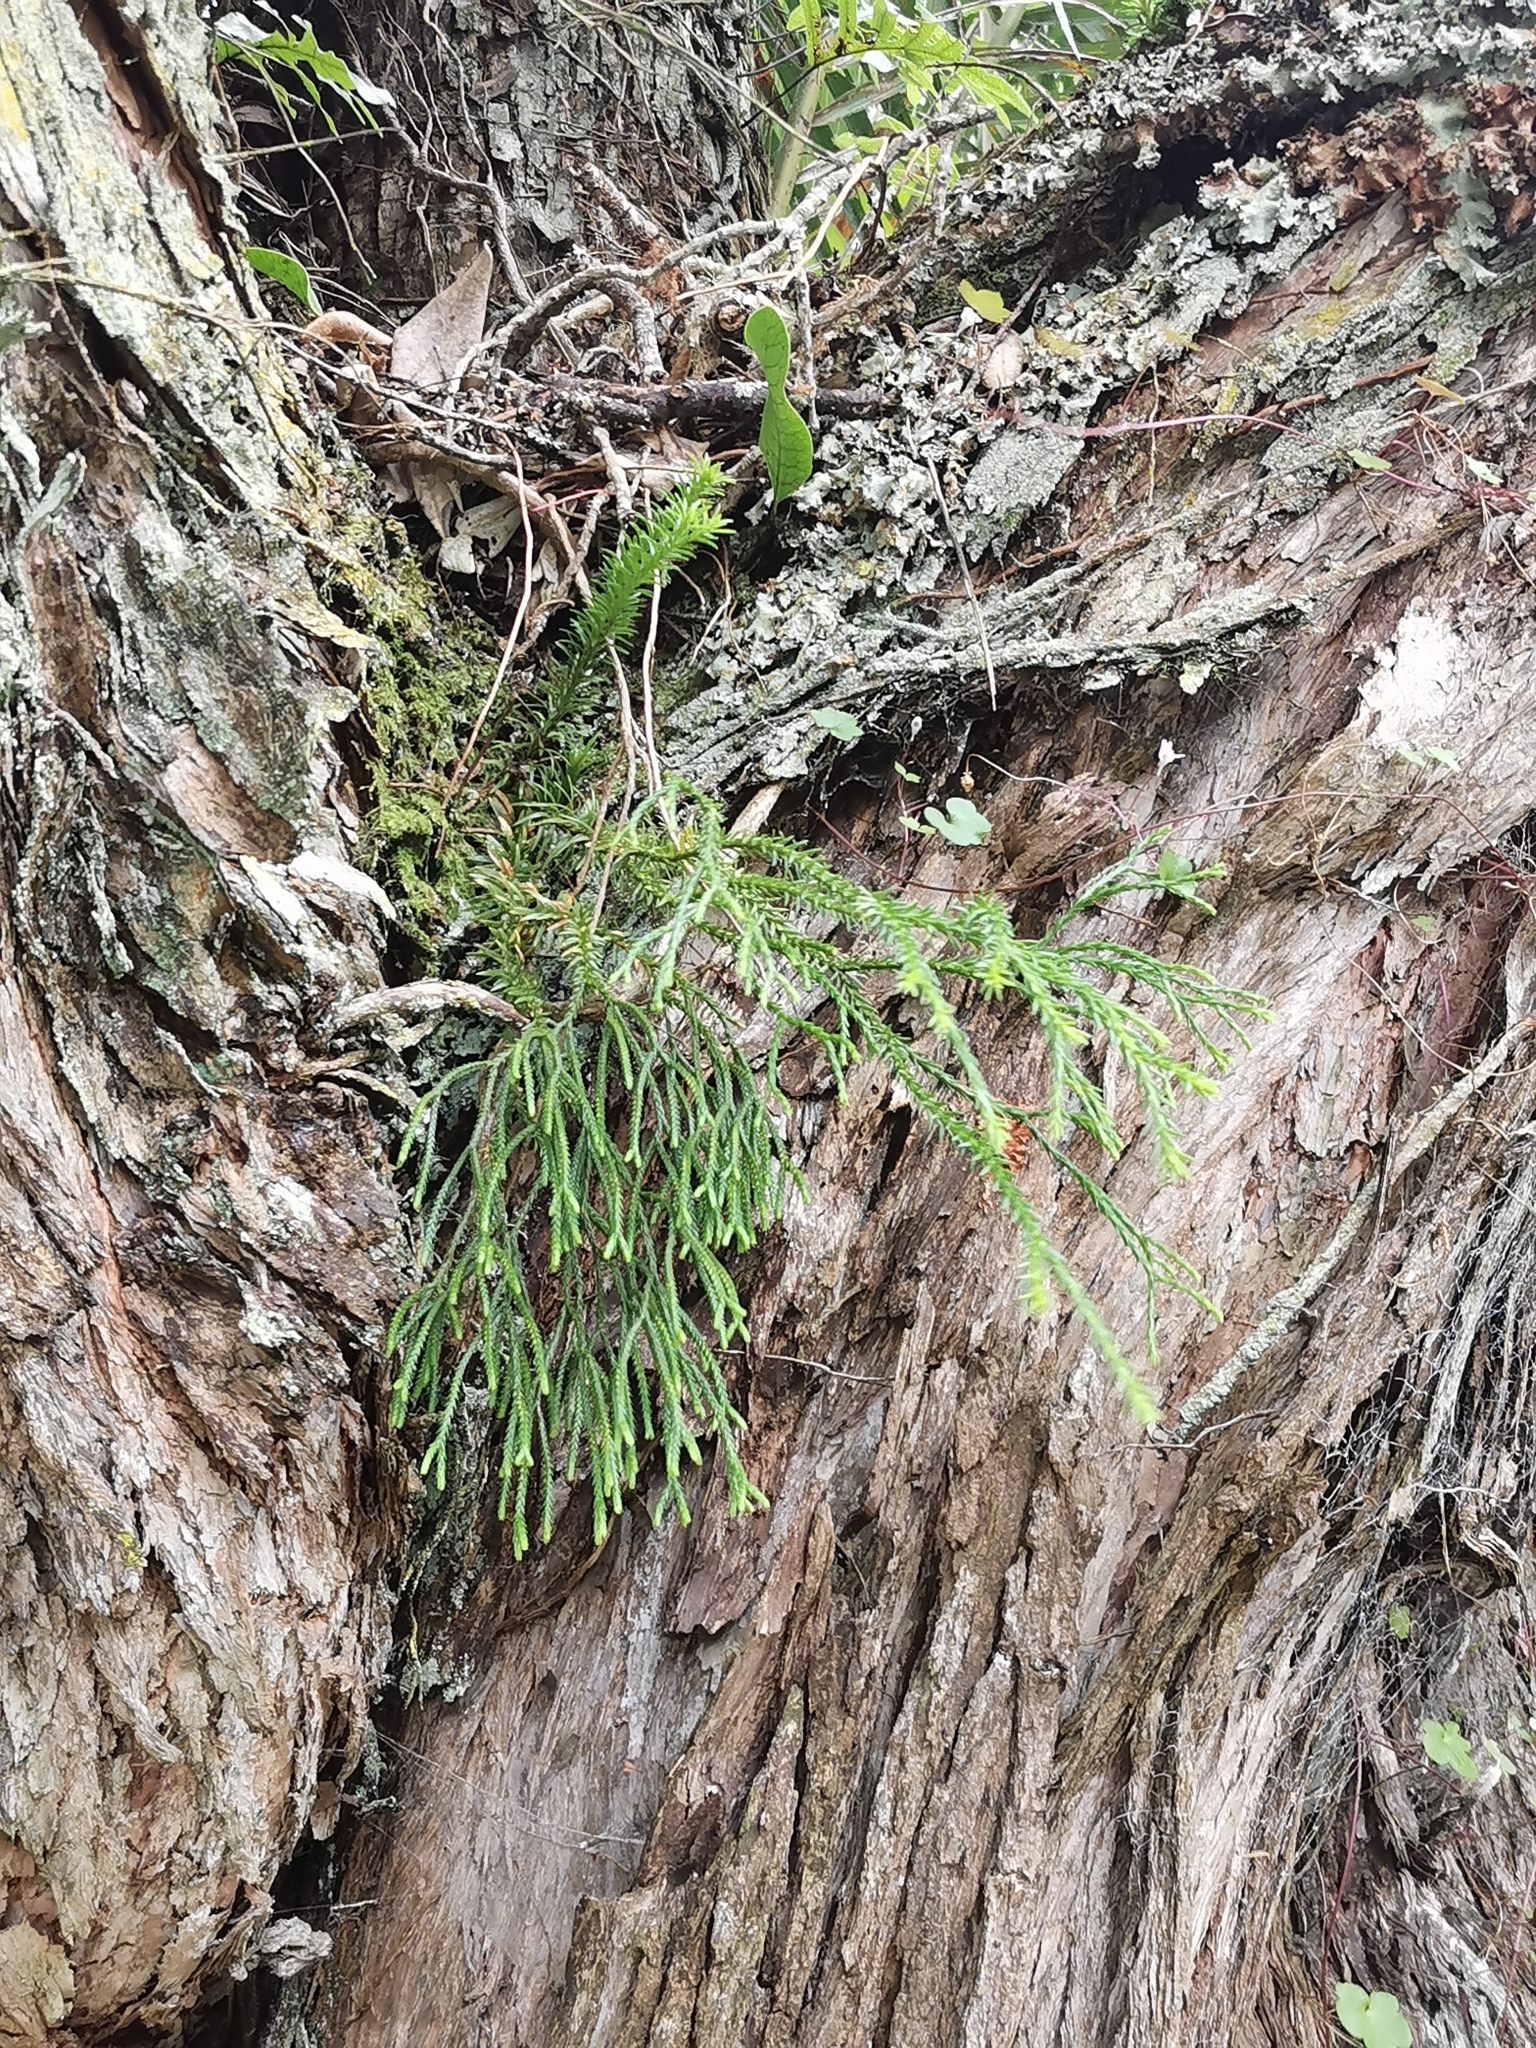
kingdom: Plantae
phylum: Tracheophyta
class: Lycopodiopsida
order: Lycopodiales
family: Lycopodiaceae
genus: Phlegmariurus
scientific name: Phlegmariurus billardierei
